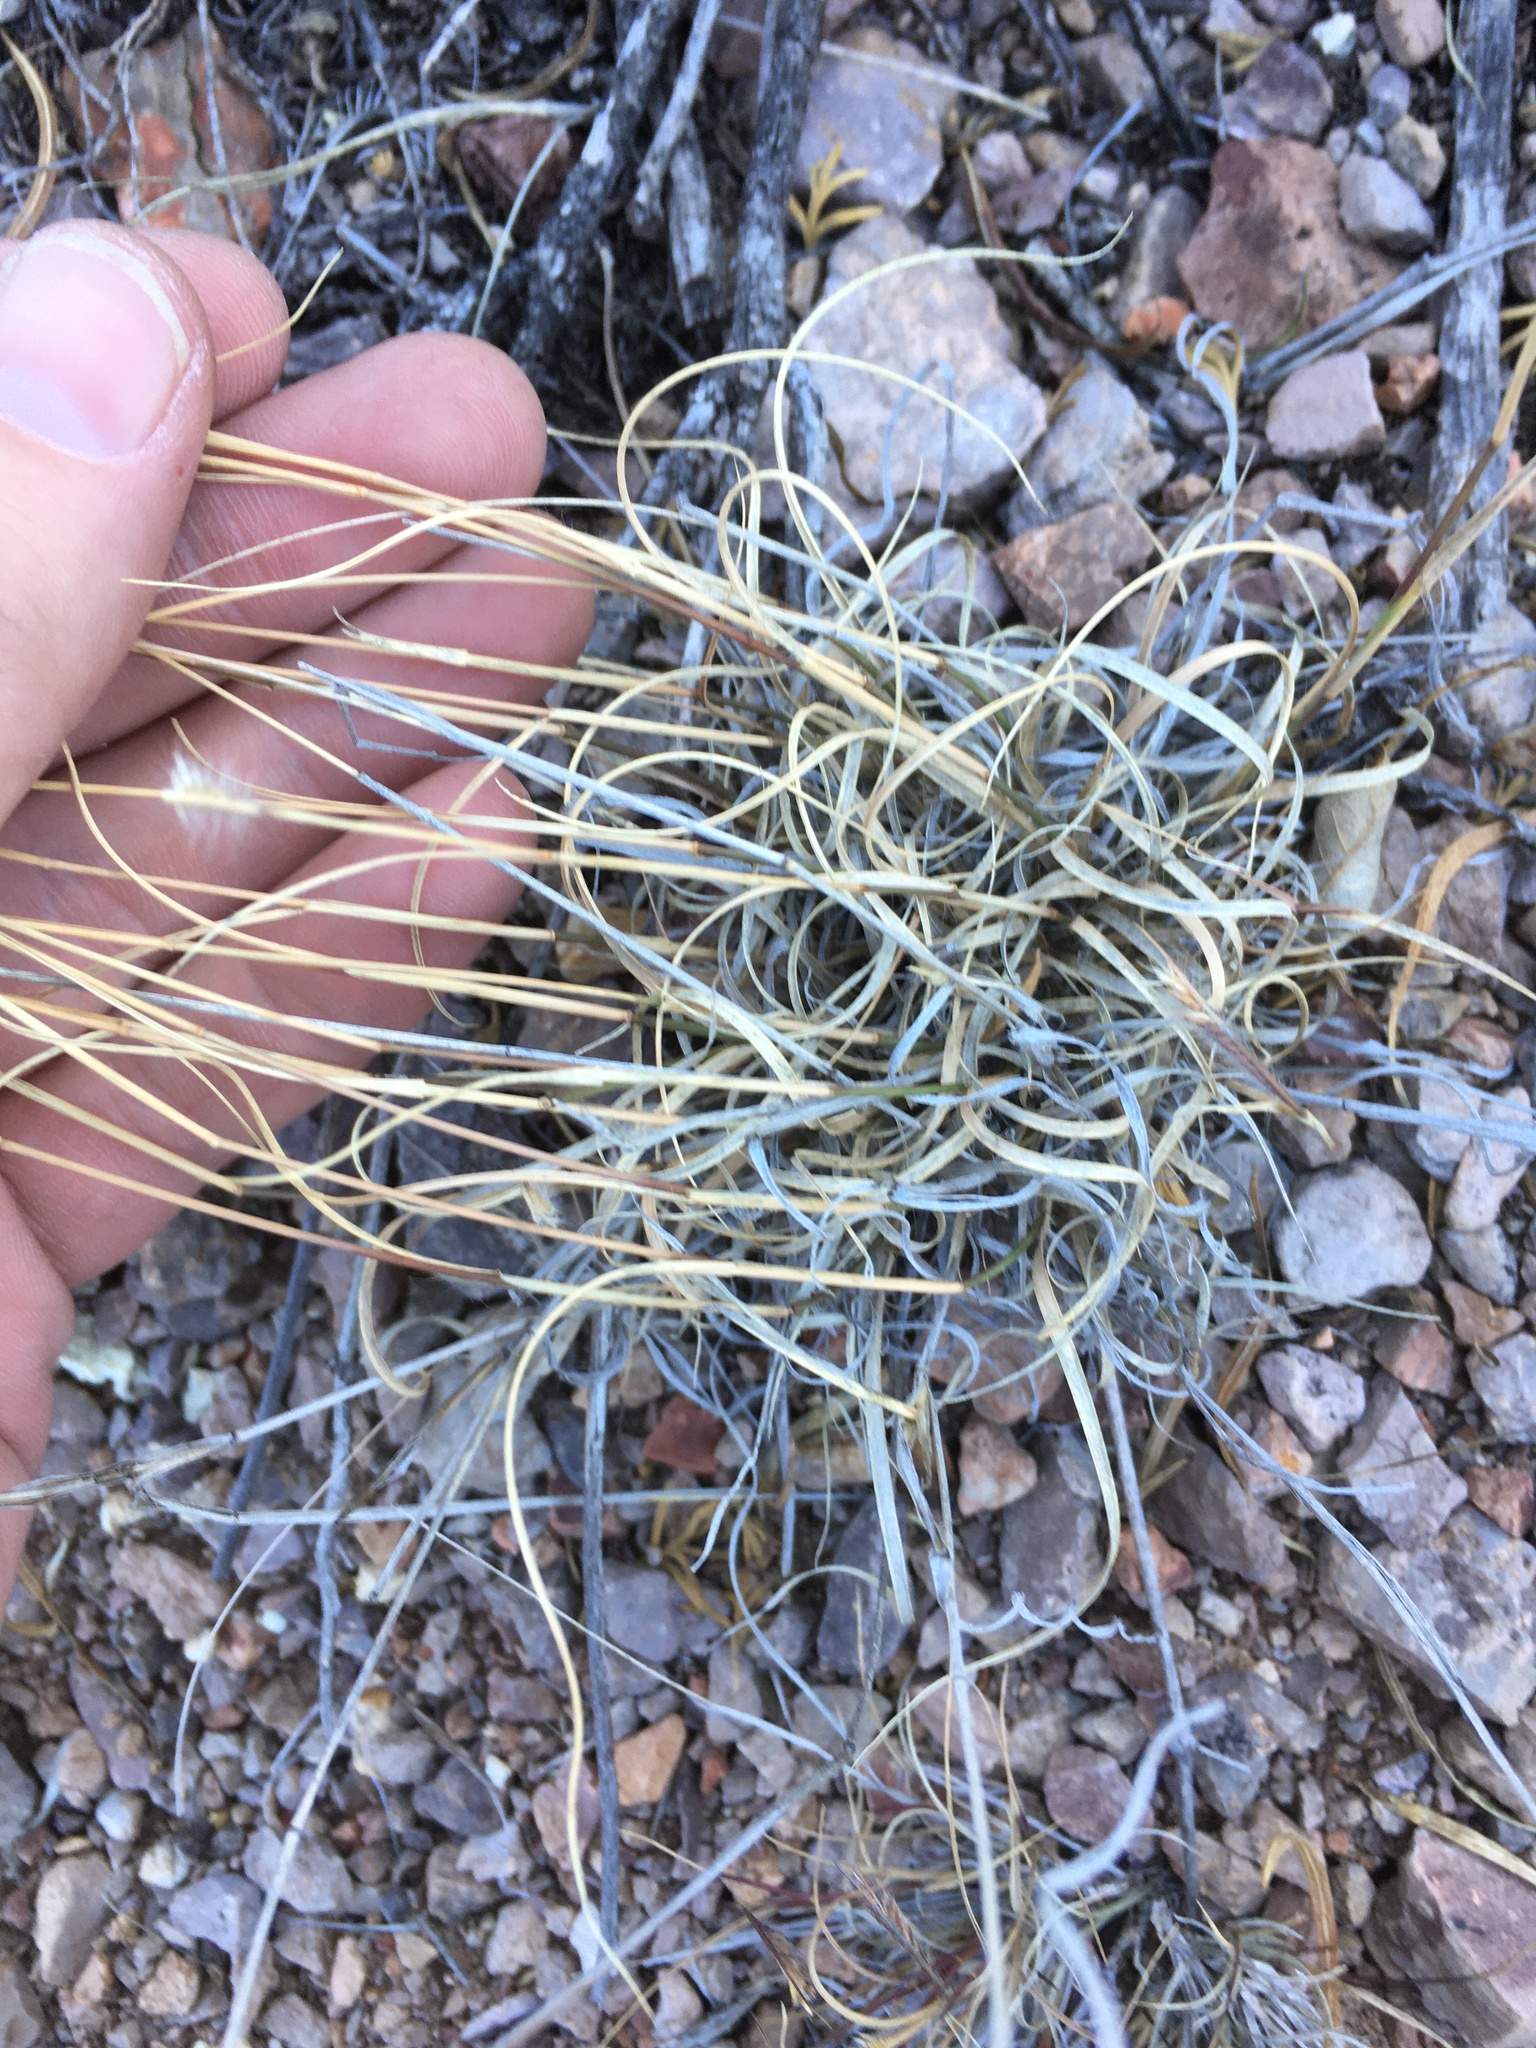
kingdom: Plantae
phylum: Tracheophyta
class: Liliopsida
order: Poales
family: Poaceae
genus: Bouteloua
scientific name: Bouteloua hirsuta
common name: Hairy grama
